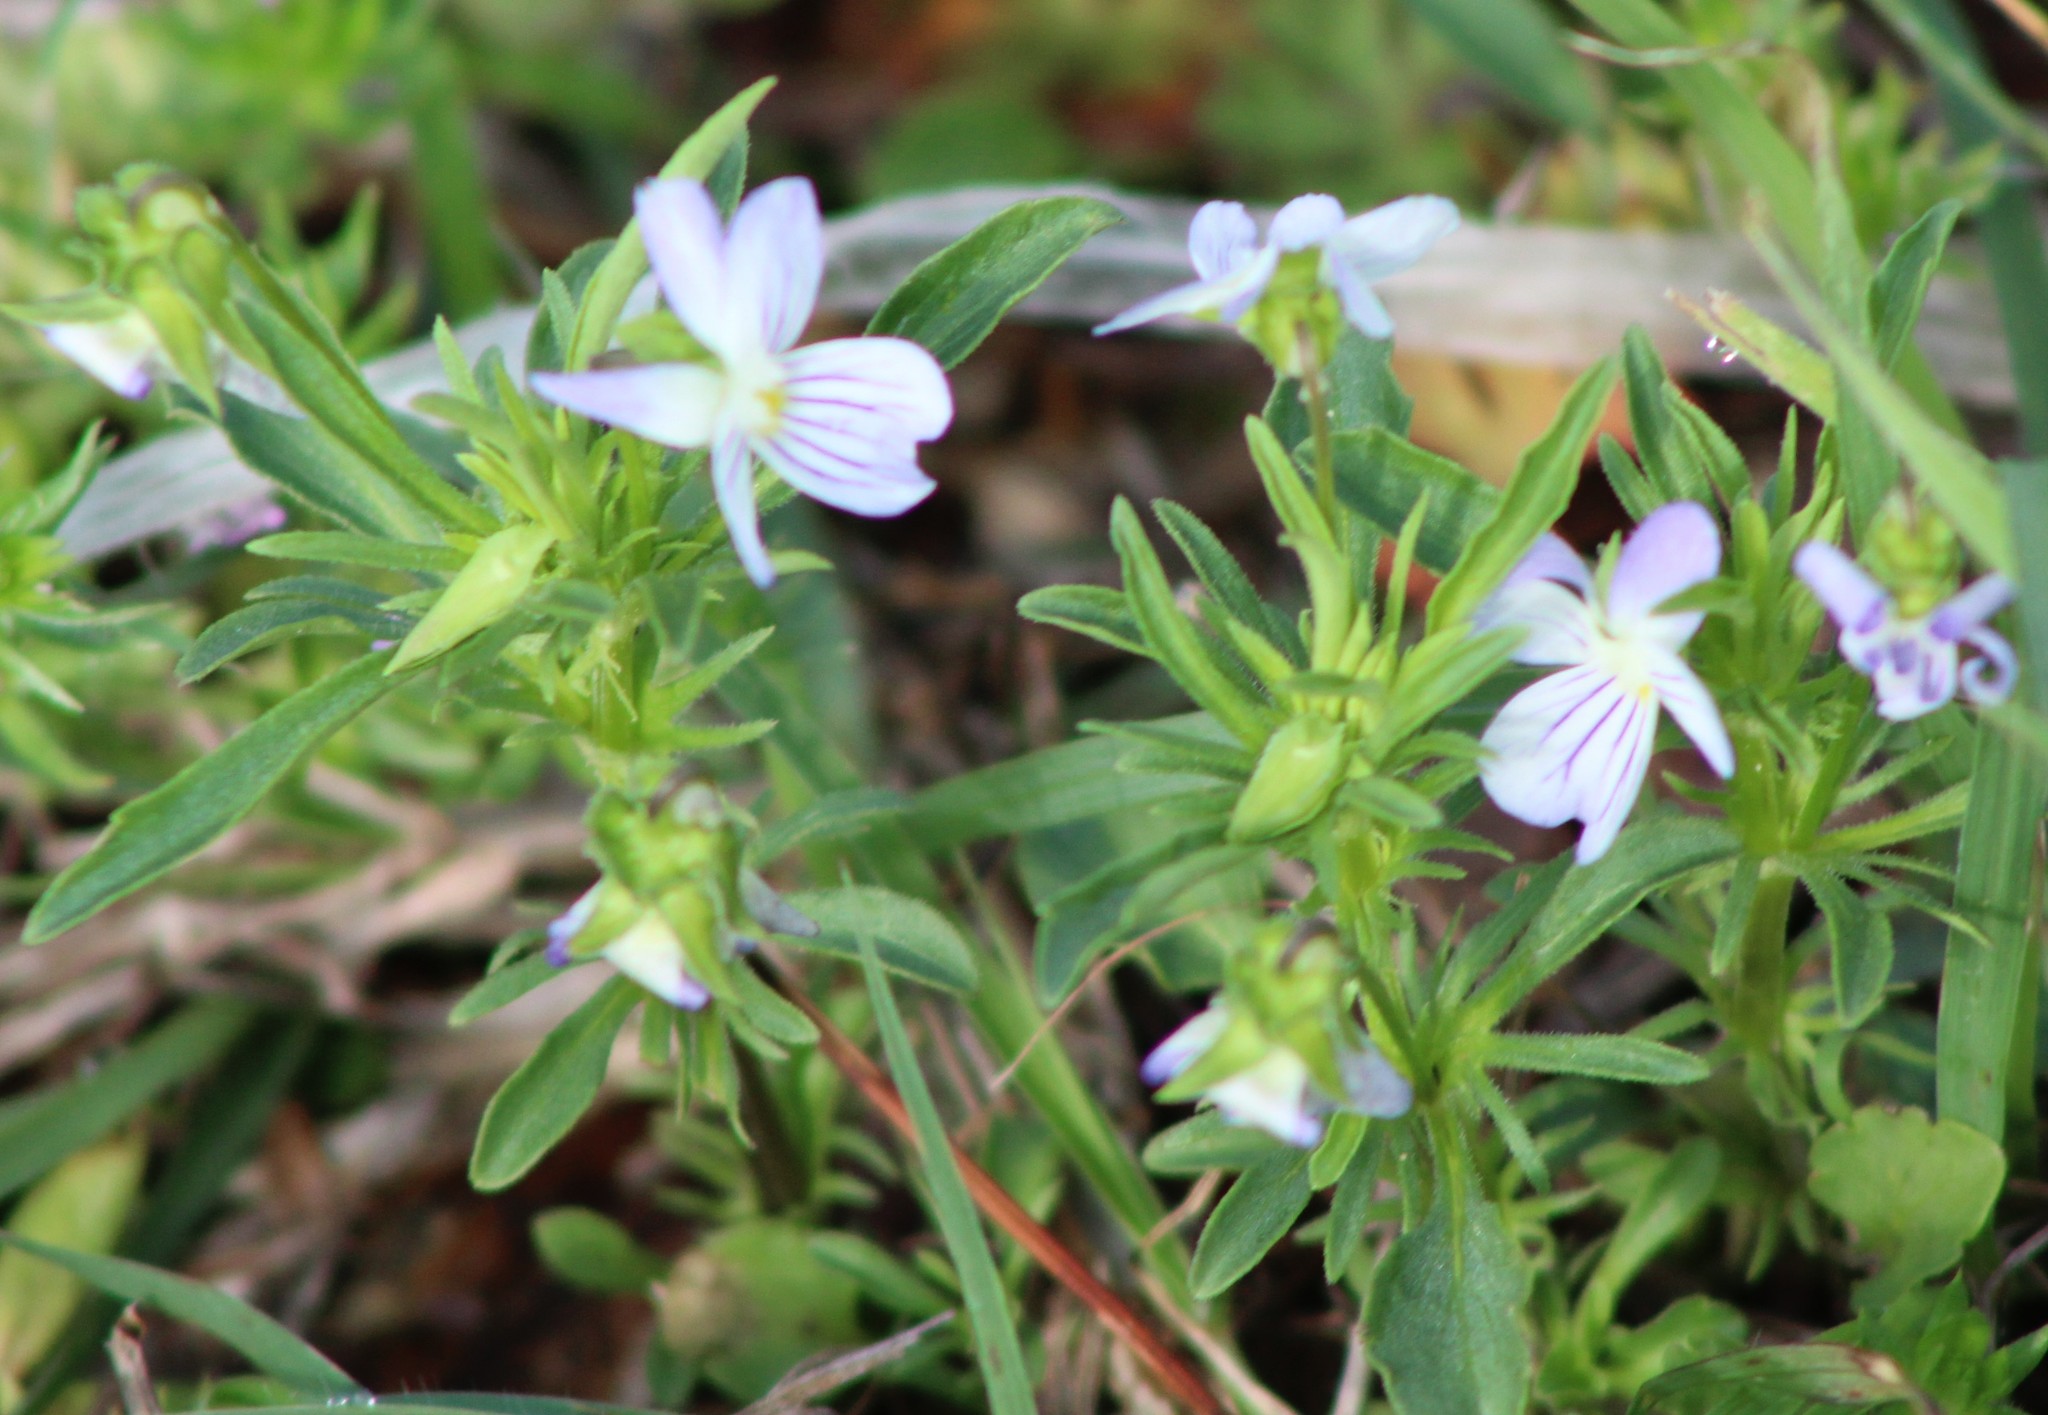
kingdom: Plantae
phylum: Tracheophyta
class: Magnoliopsida
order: Malpighiales
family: Violaceae
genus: Viola
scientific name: Viola rafinesquei
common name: American field pansy
